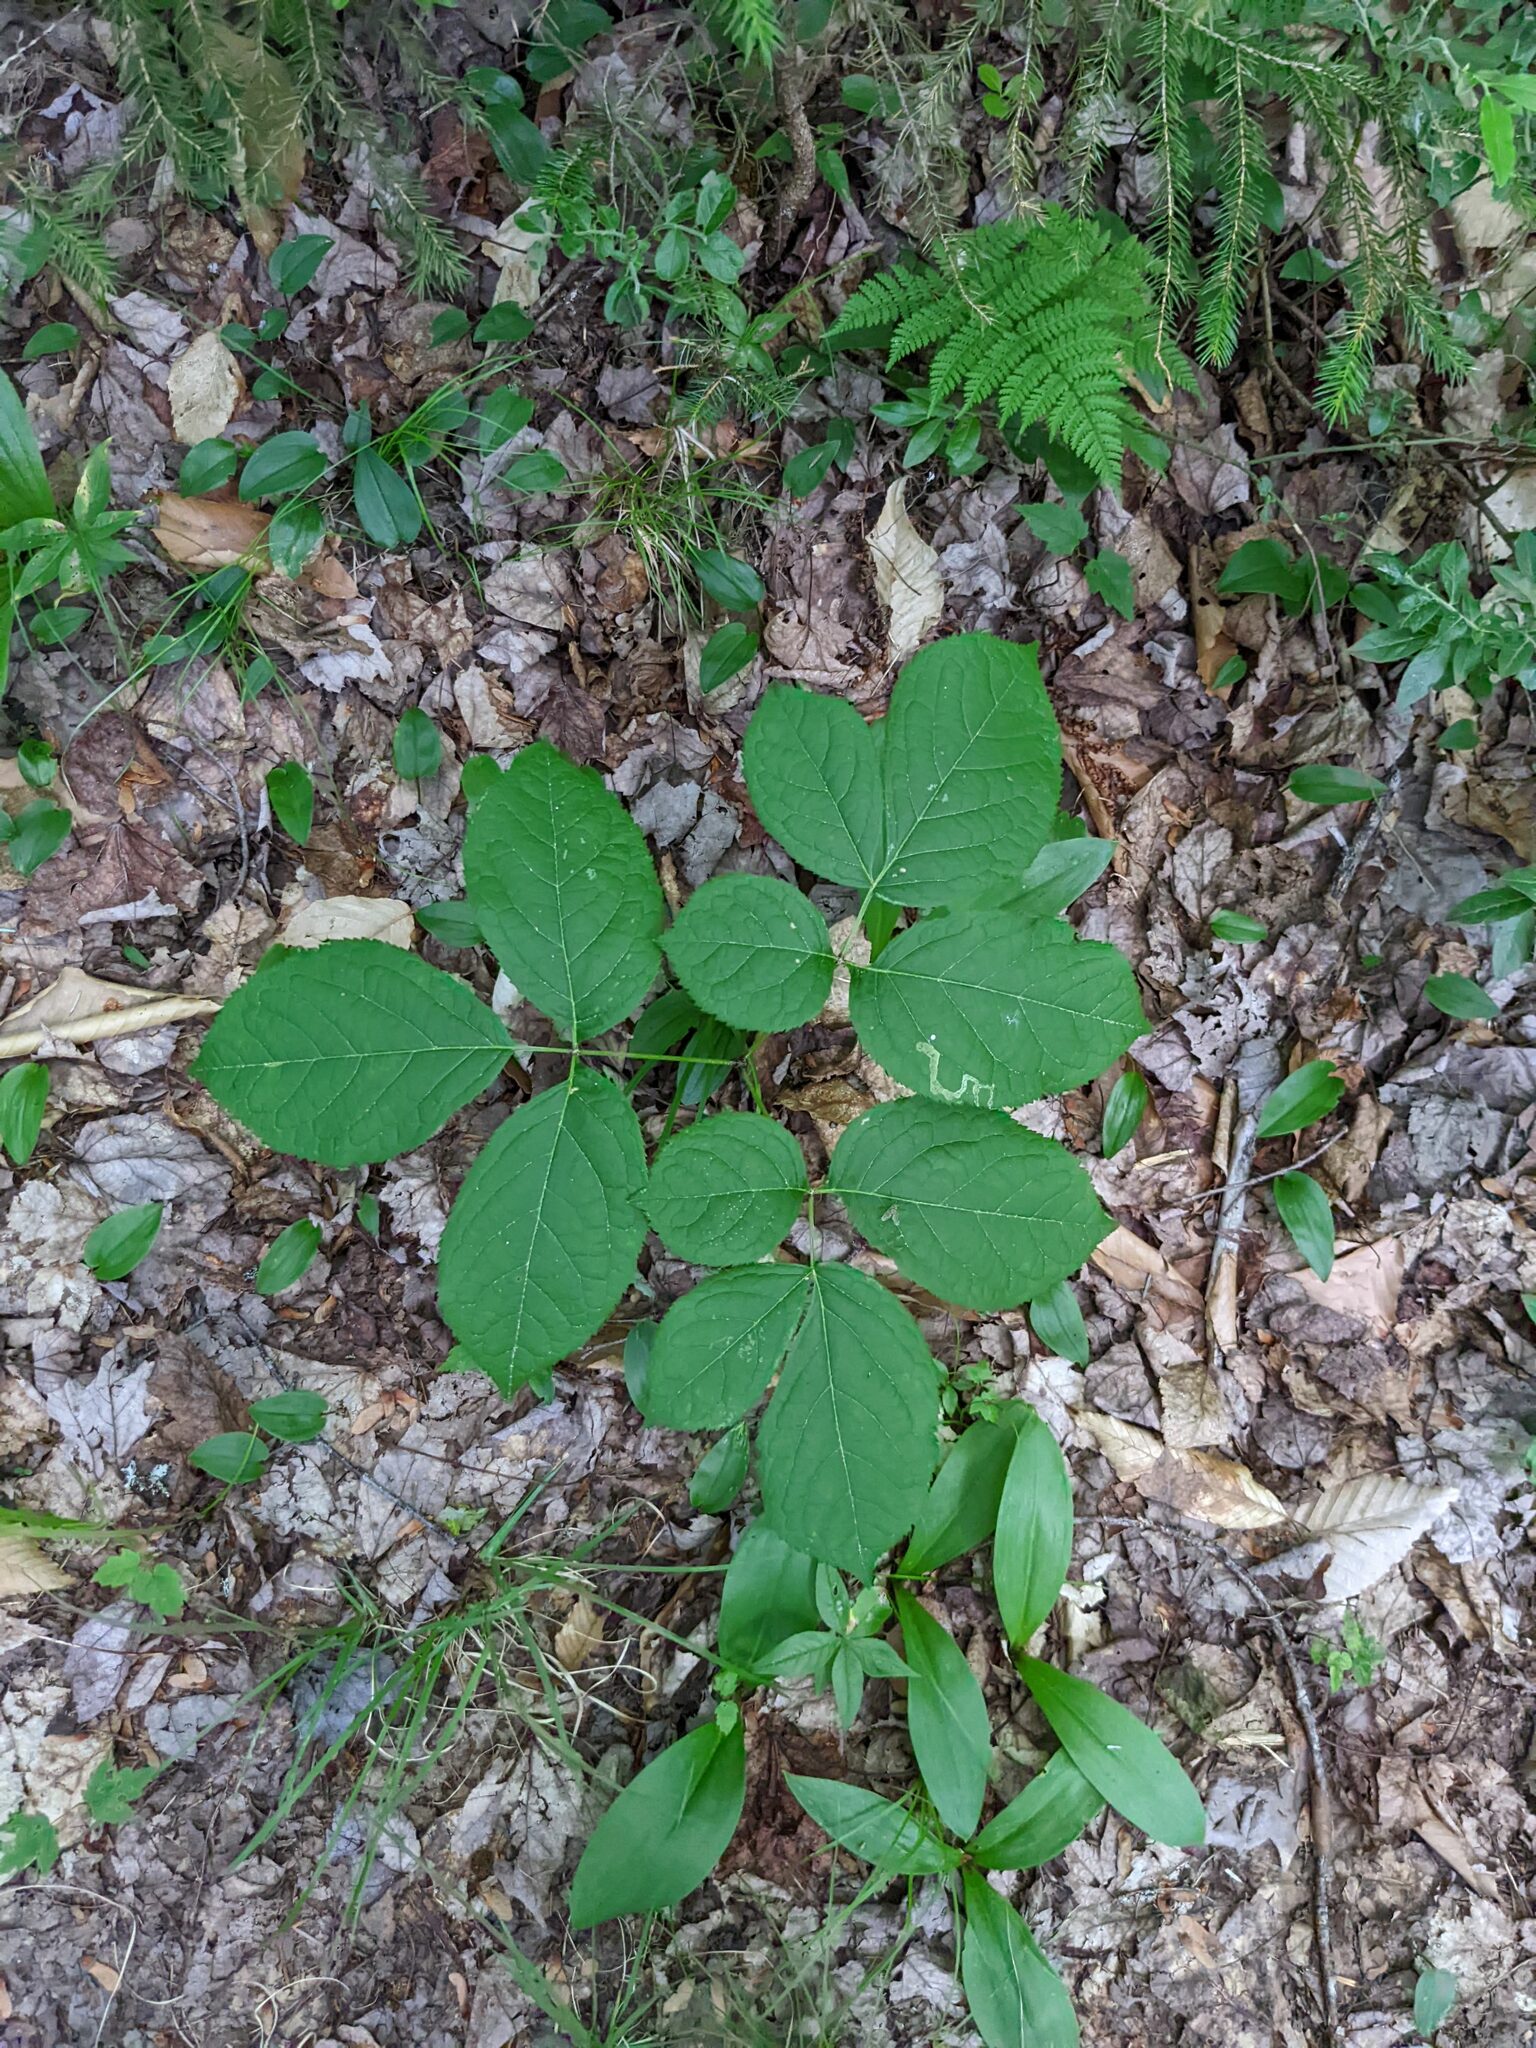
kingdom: Plantae
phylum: Tracheophyta
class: Magnoliopsida
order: Apiales
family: Araliaceae
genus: Aralia
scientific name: Aralia nudicaulis
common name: Wild sarsaparilla
